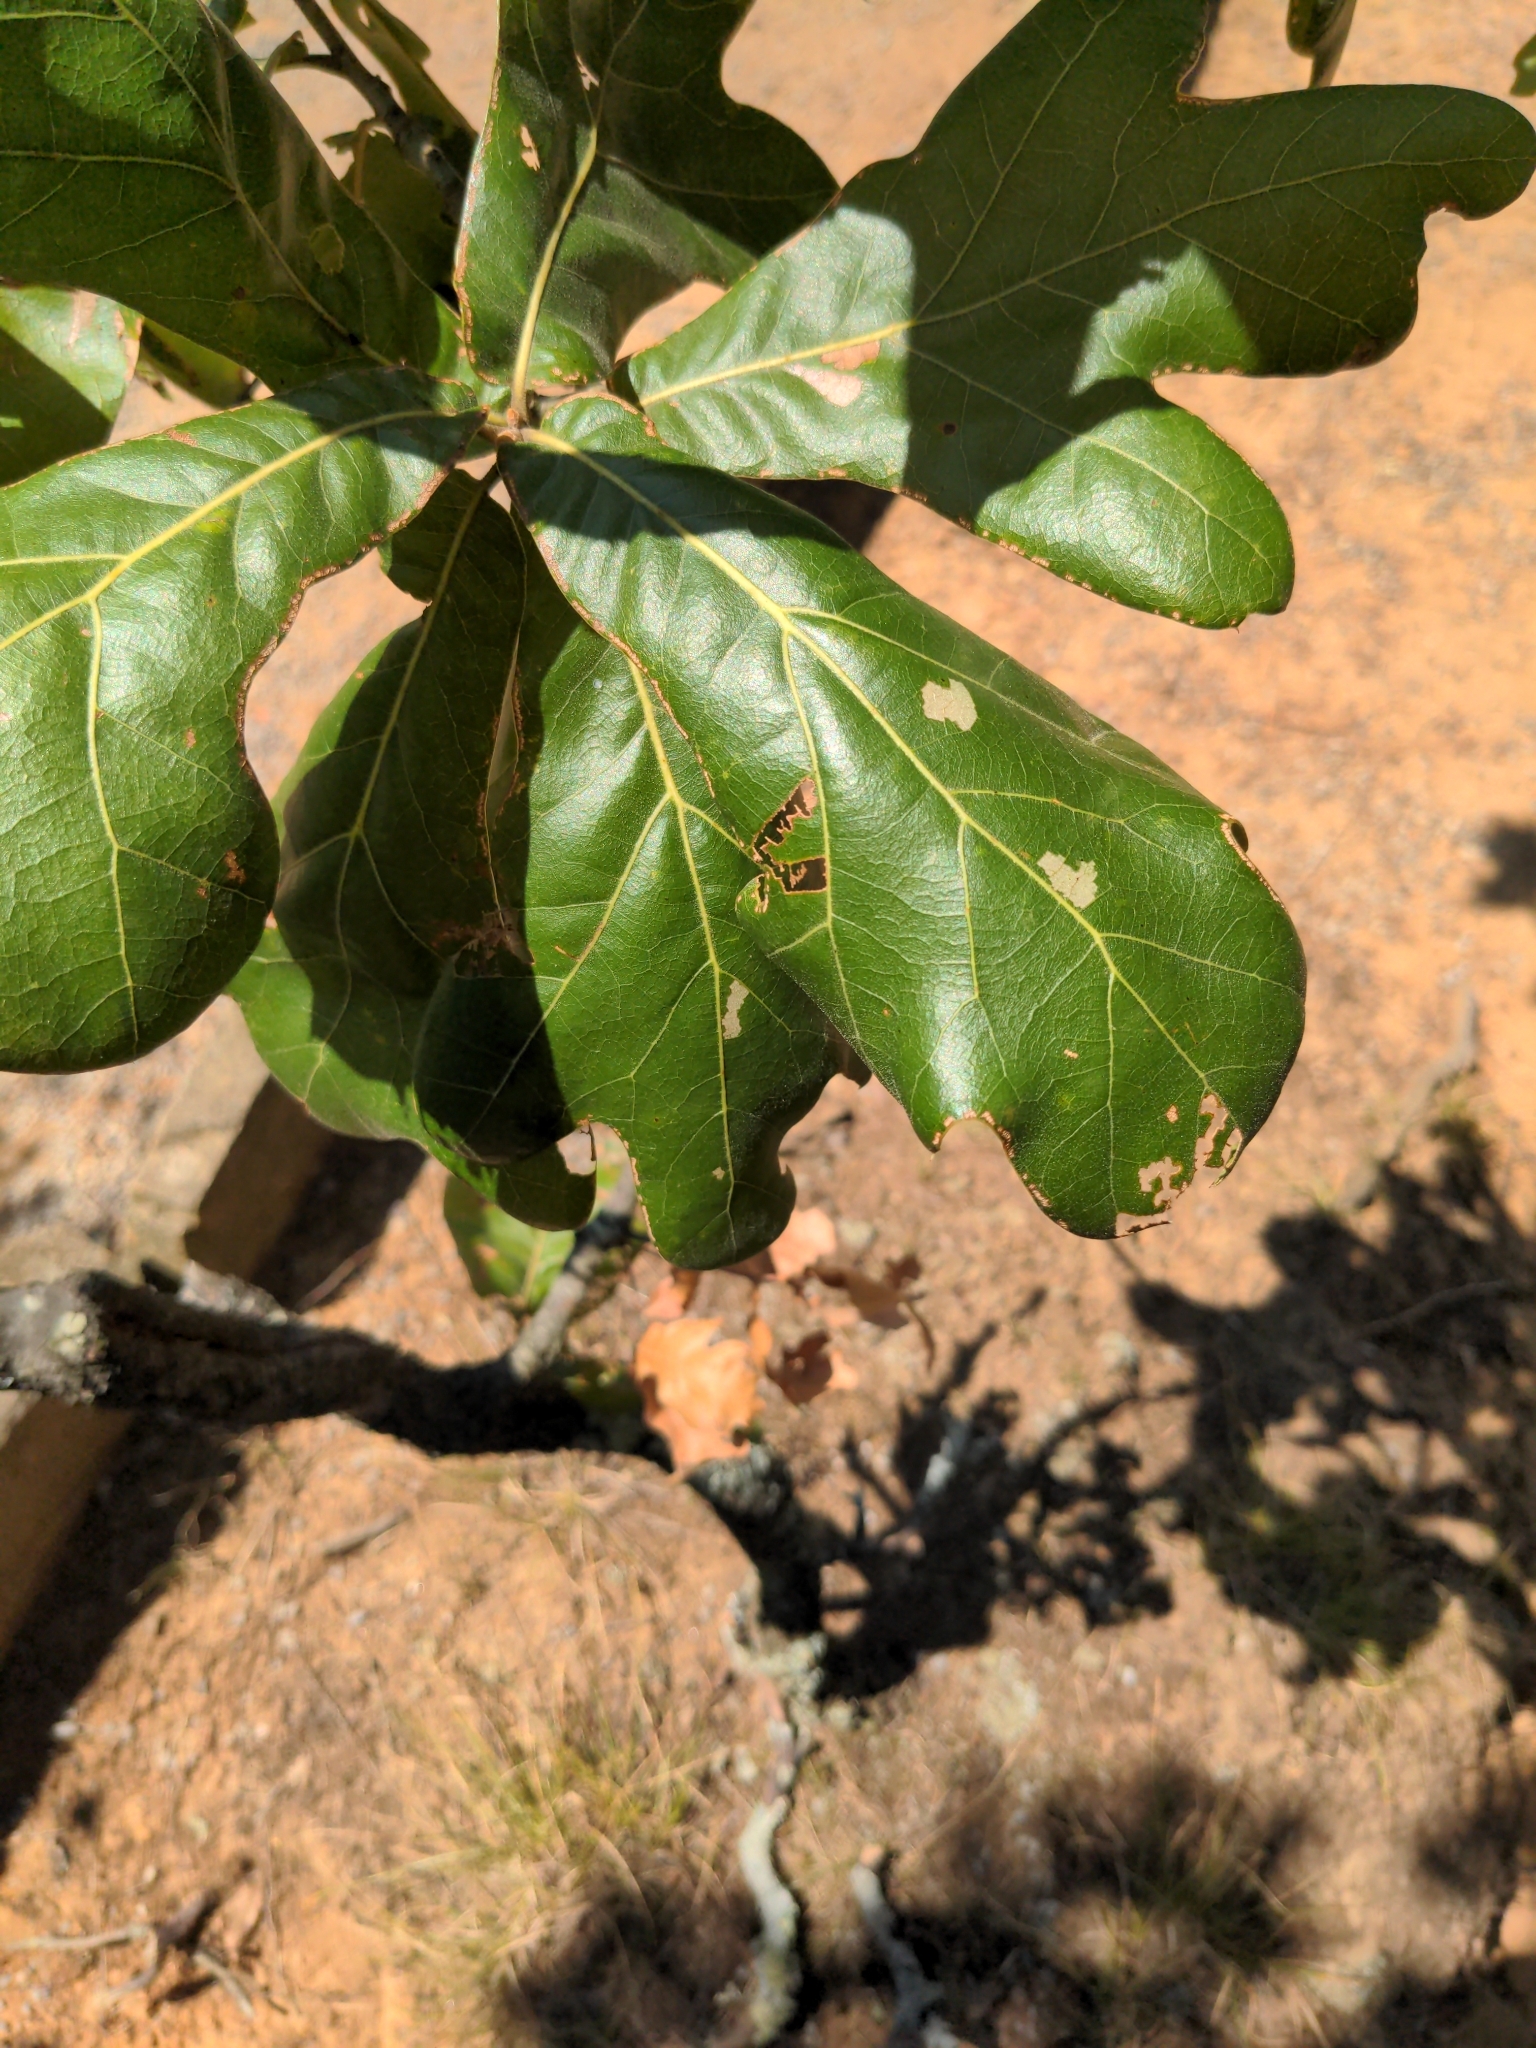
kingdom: Plantae
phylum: Tracheophyta
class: Magnoliopsida
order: Fagales
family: Fagaceae
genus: Quercus
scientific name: Quercus marilandica
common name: Blackjack oak
